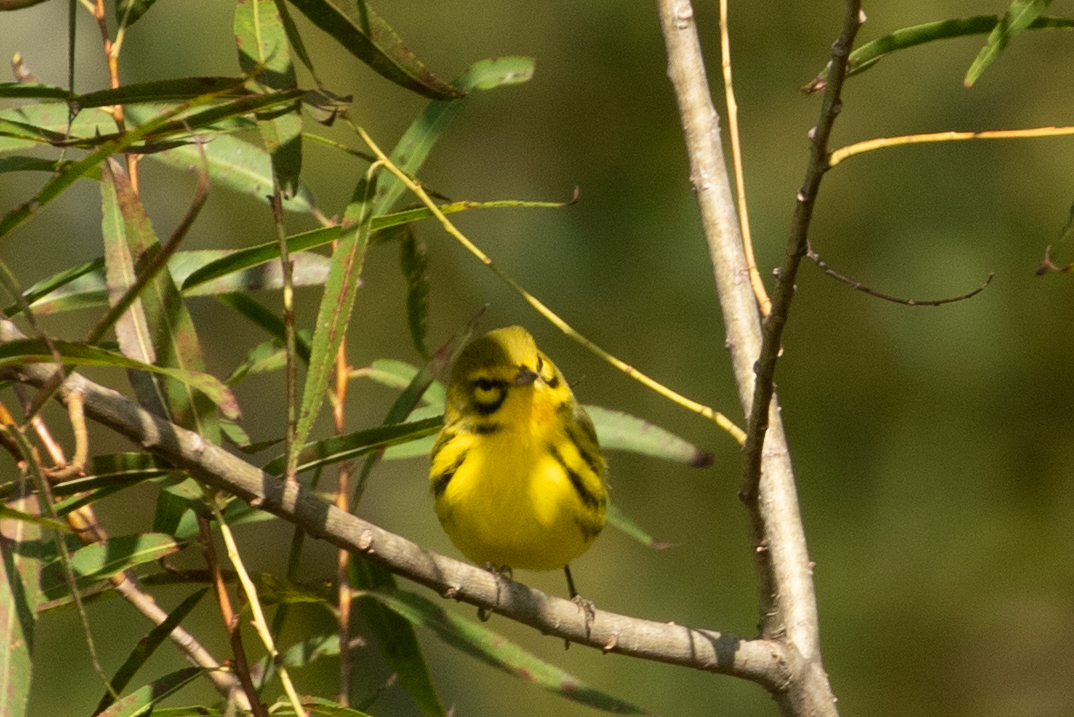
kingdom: Animalia
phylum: Chordata
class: Aves
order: Passeriformes
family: Parulidae
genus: Setophaga
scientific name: Setophaga discolor
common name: Prairie warbler
